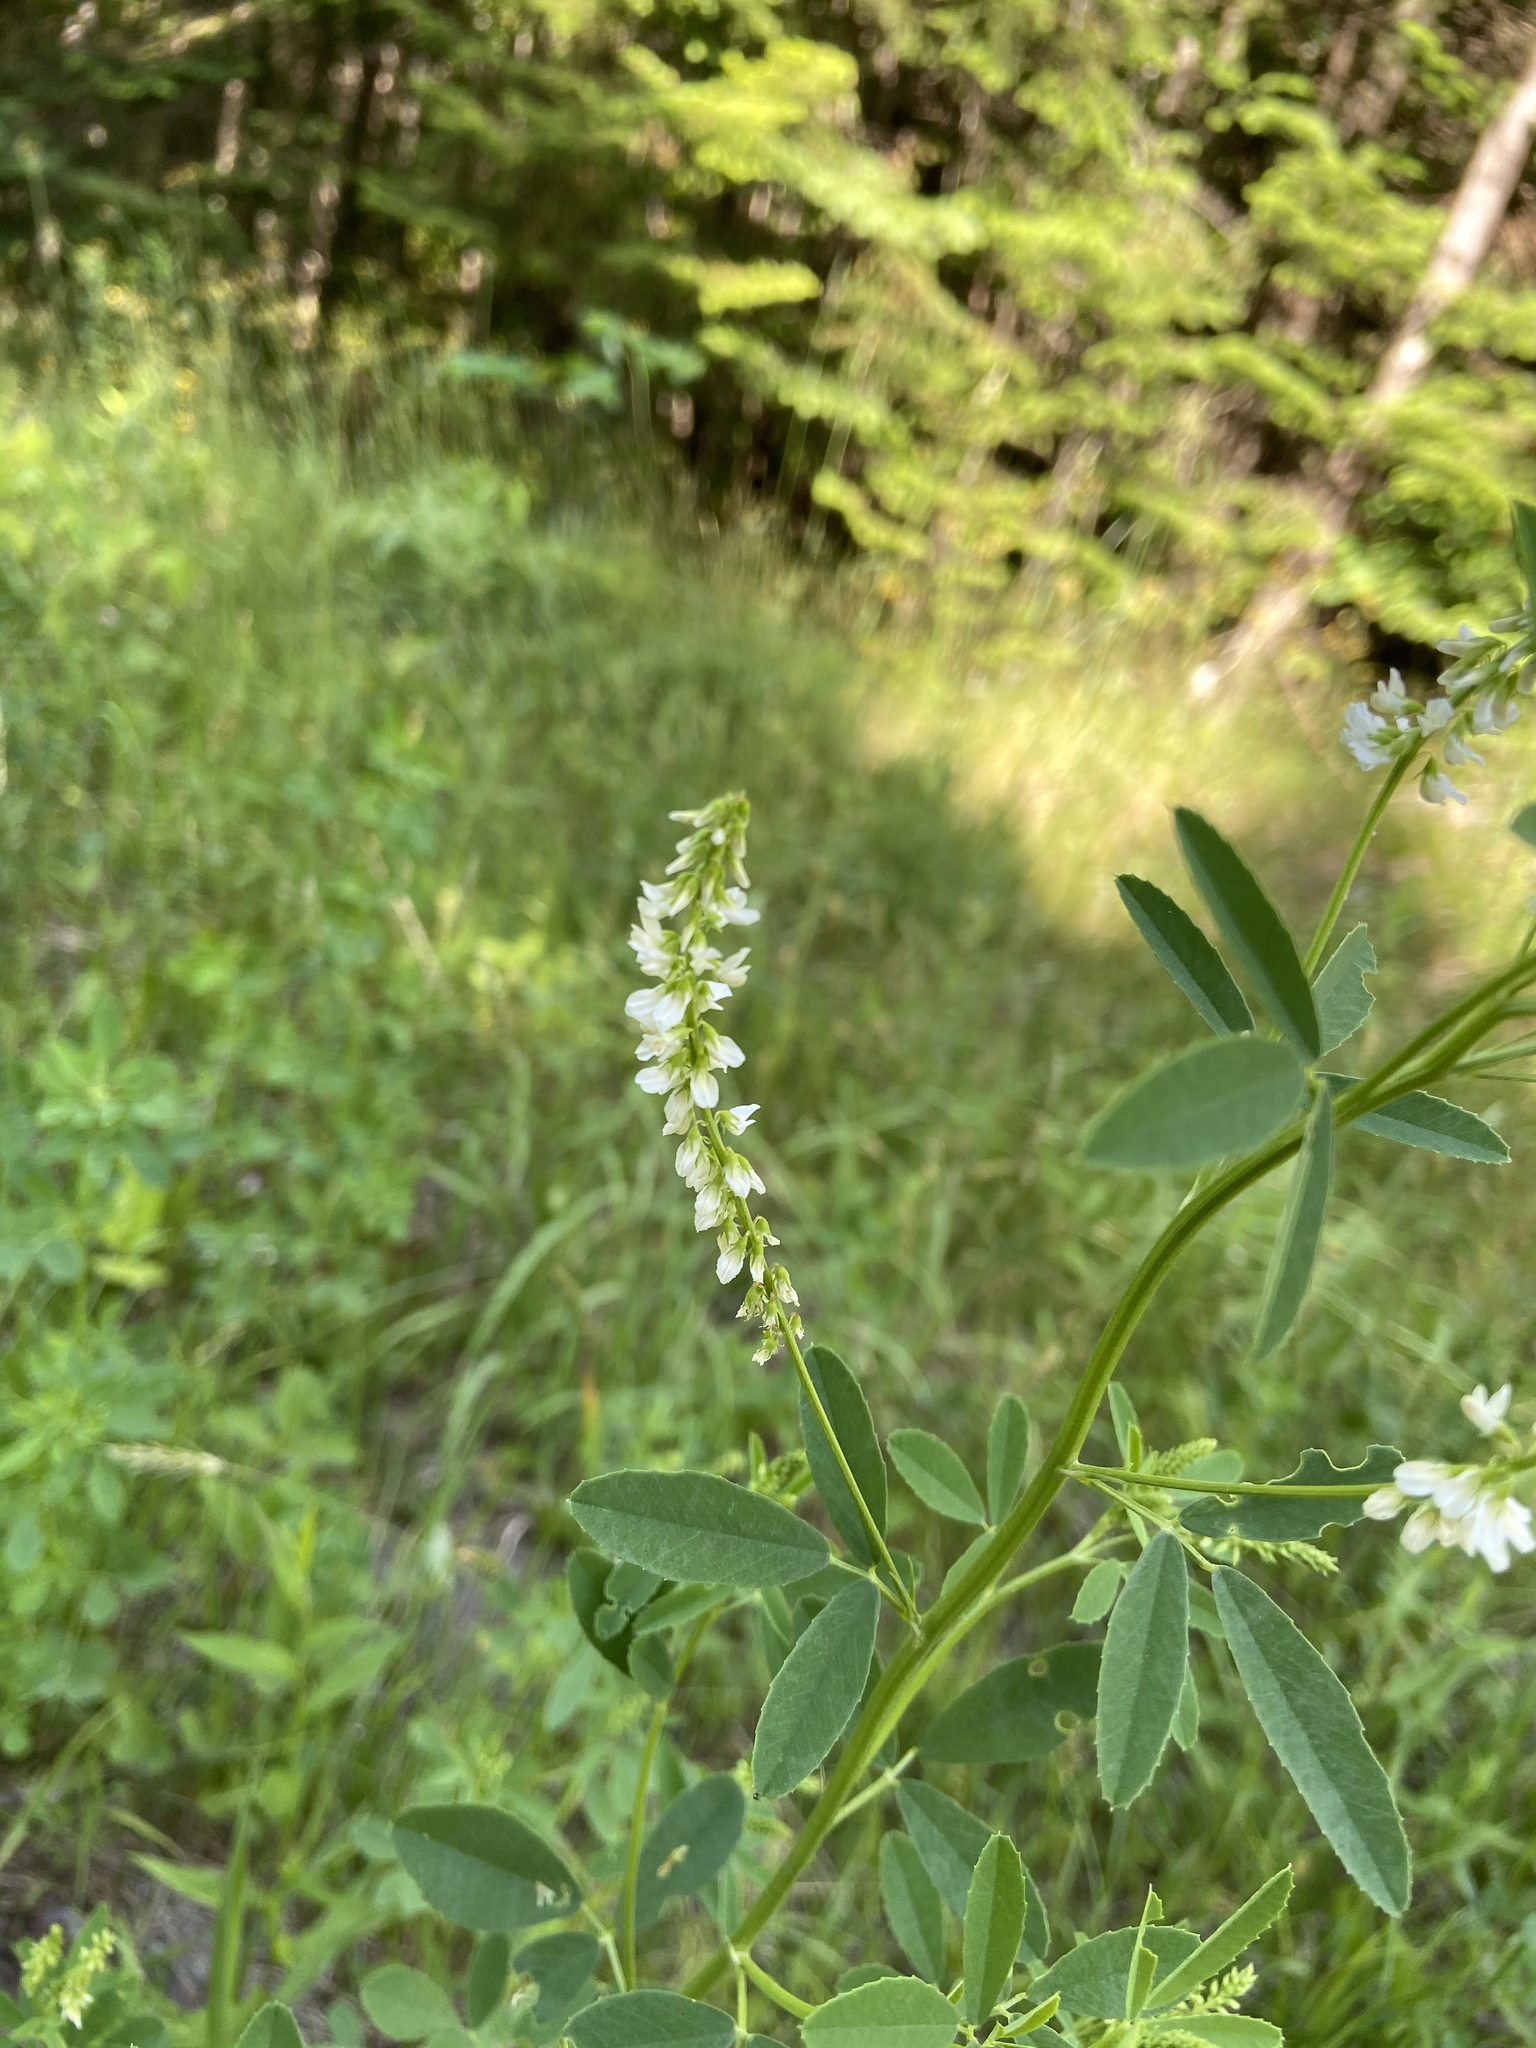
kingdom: Plantae
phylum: Tracheophyta
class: Magnoliopsida
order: Fabales
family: Fabaceae
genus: Melilotus
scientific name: Melilotus albus
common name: White melilot
